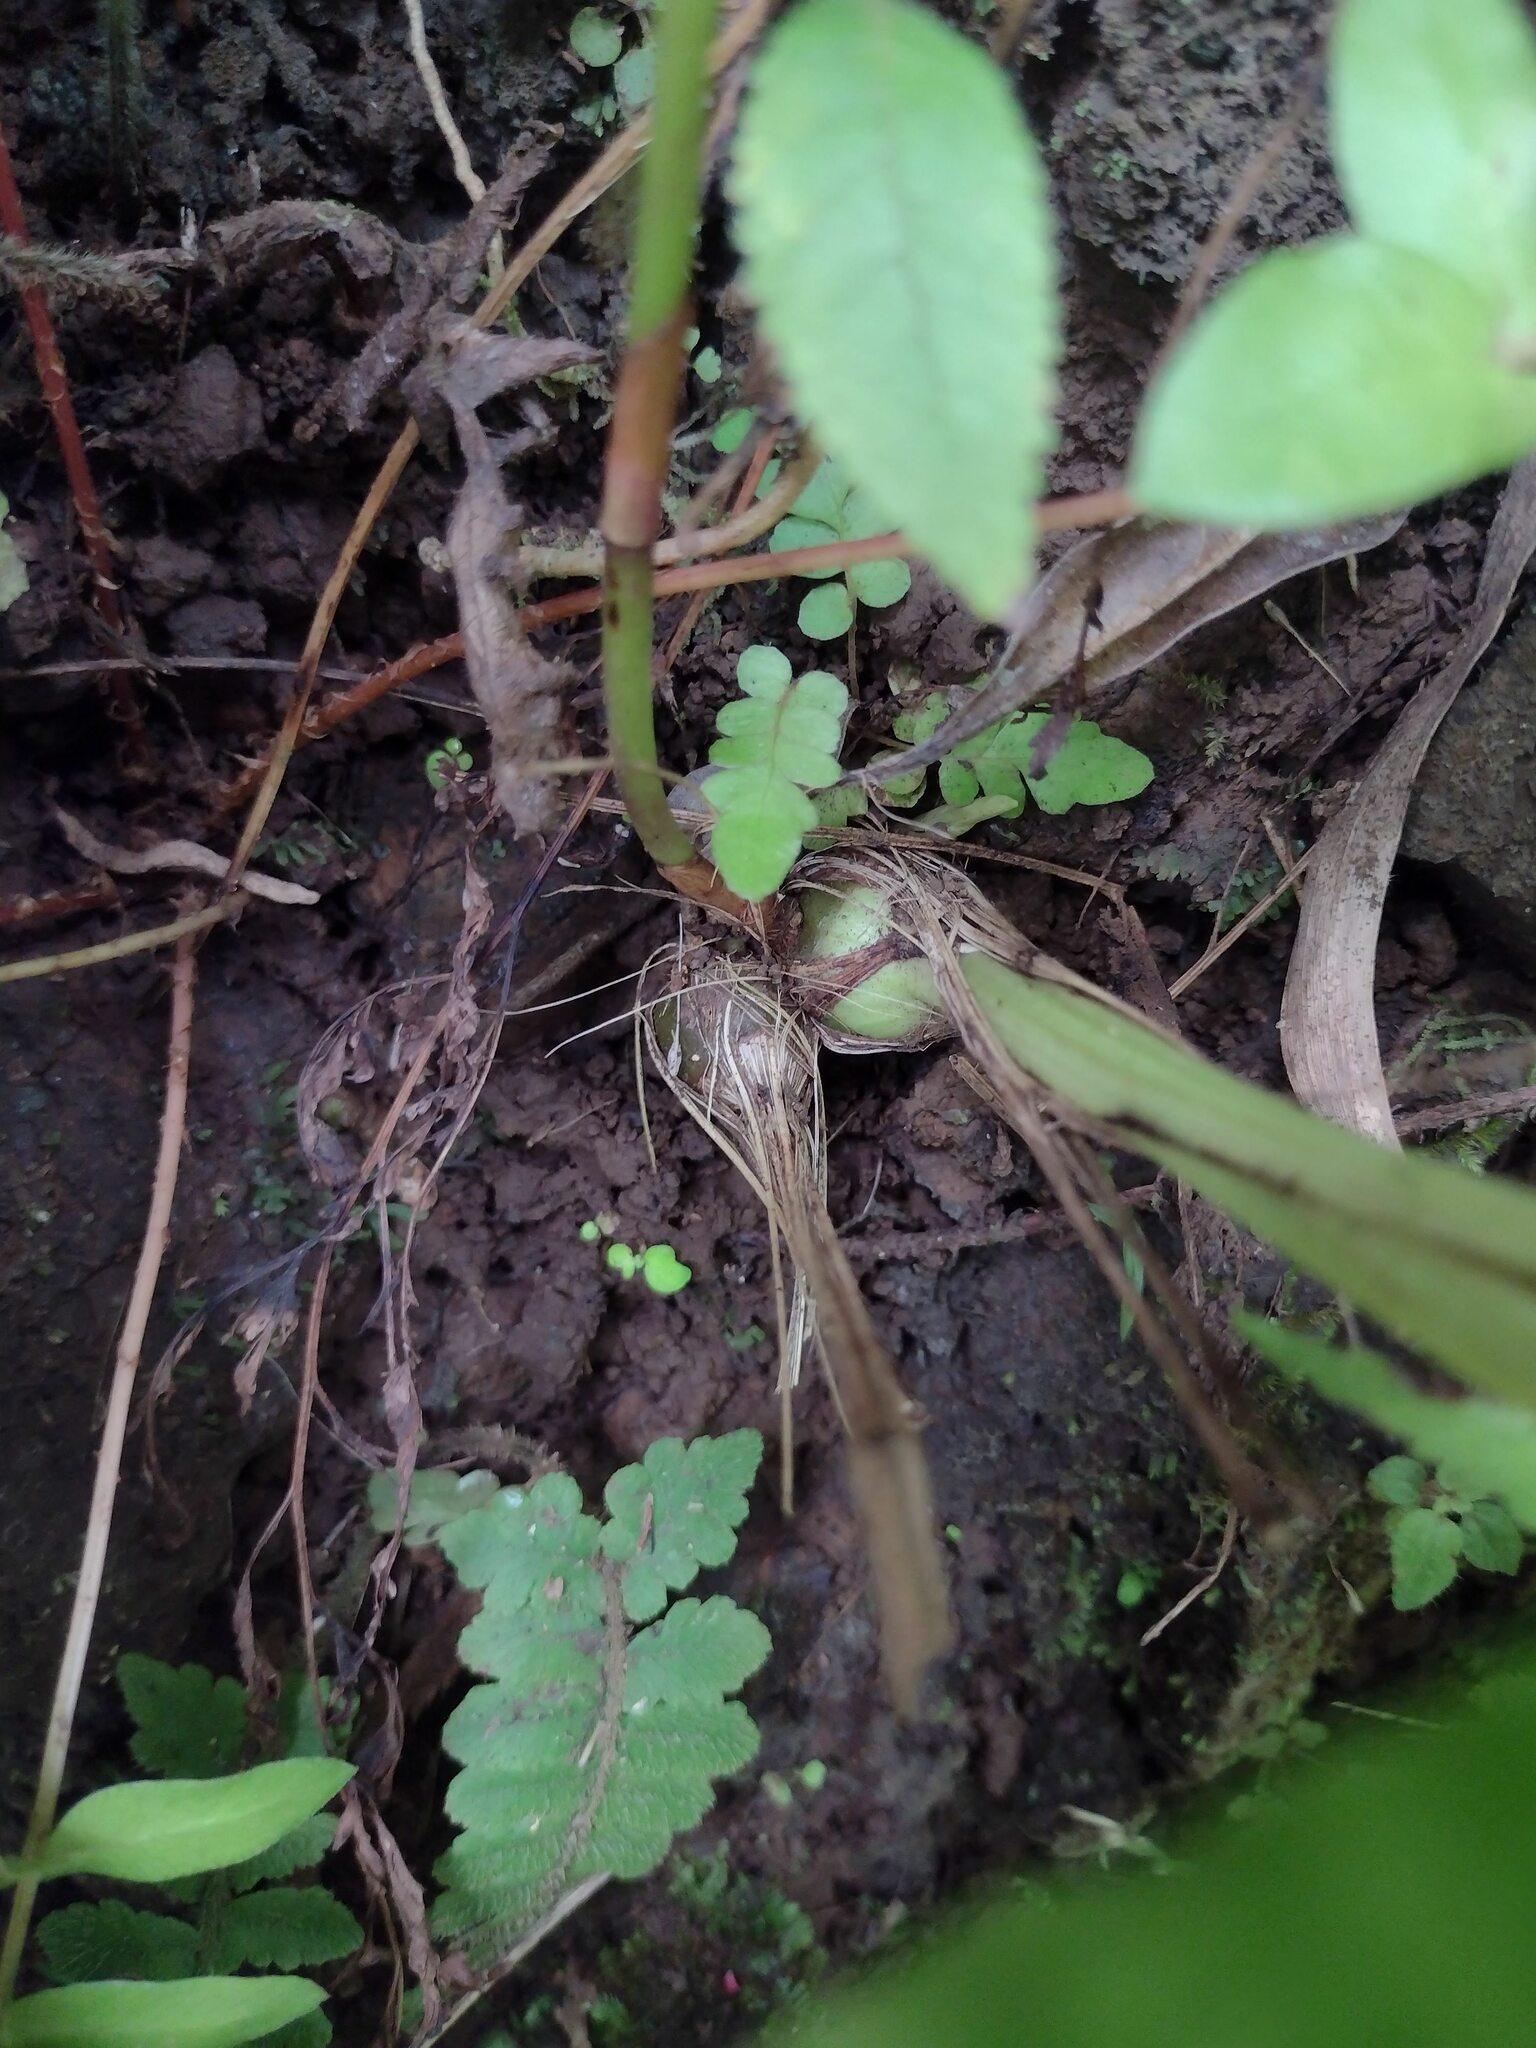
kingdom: Plantae
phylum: Tracheophyta
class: Liliopsida
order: Asparagales
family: Orchidaceae
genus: Spathoglottis
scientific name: Spathoglottis plicata
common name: Philippine ground orchid
